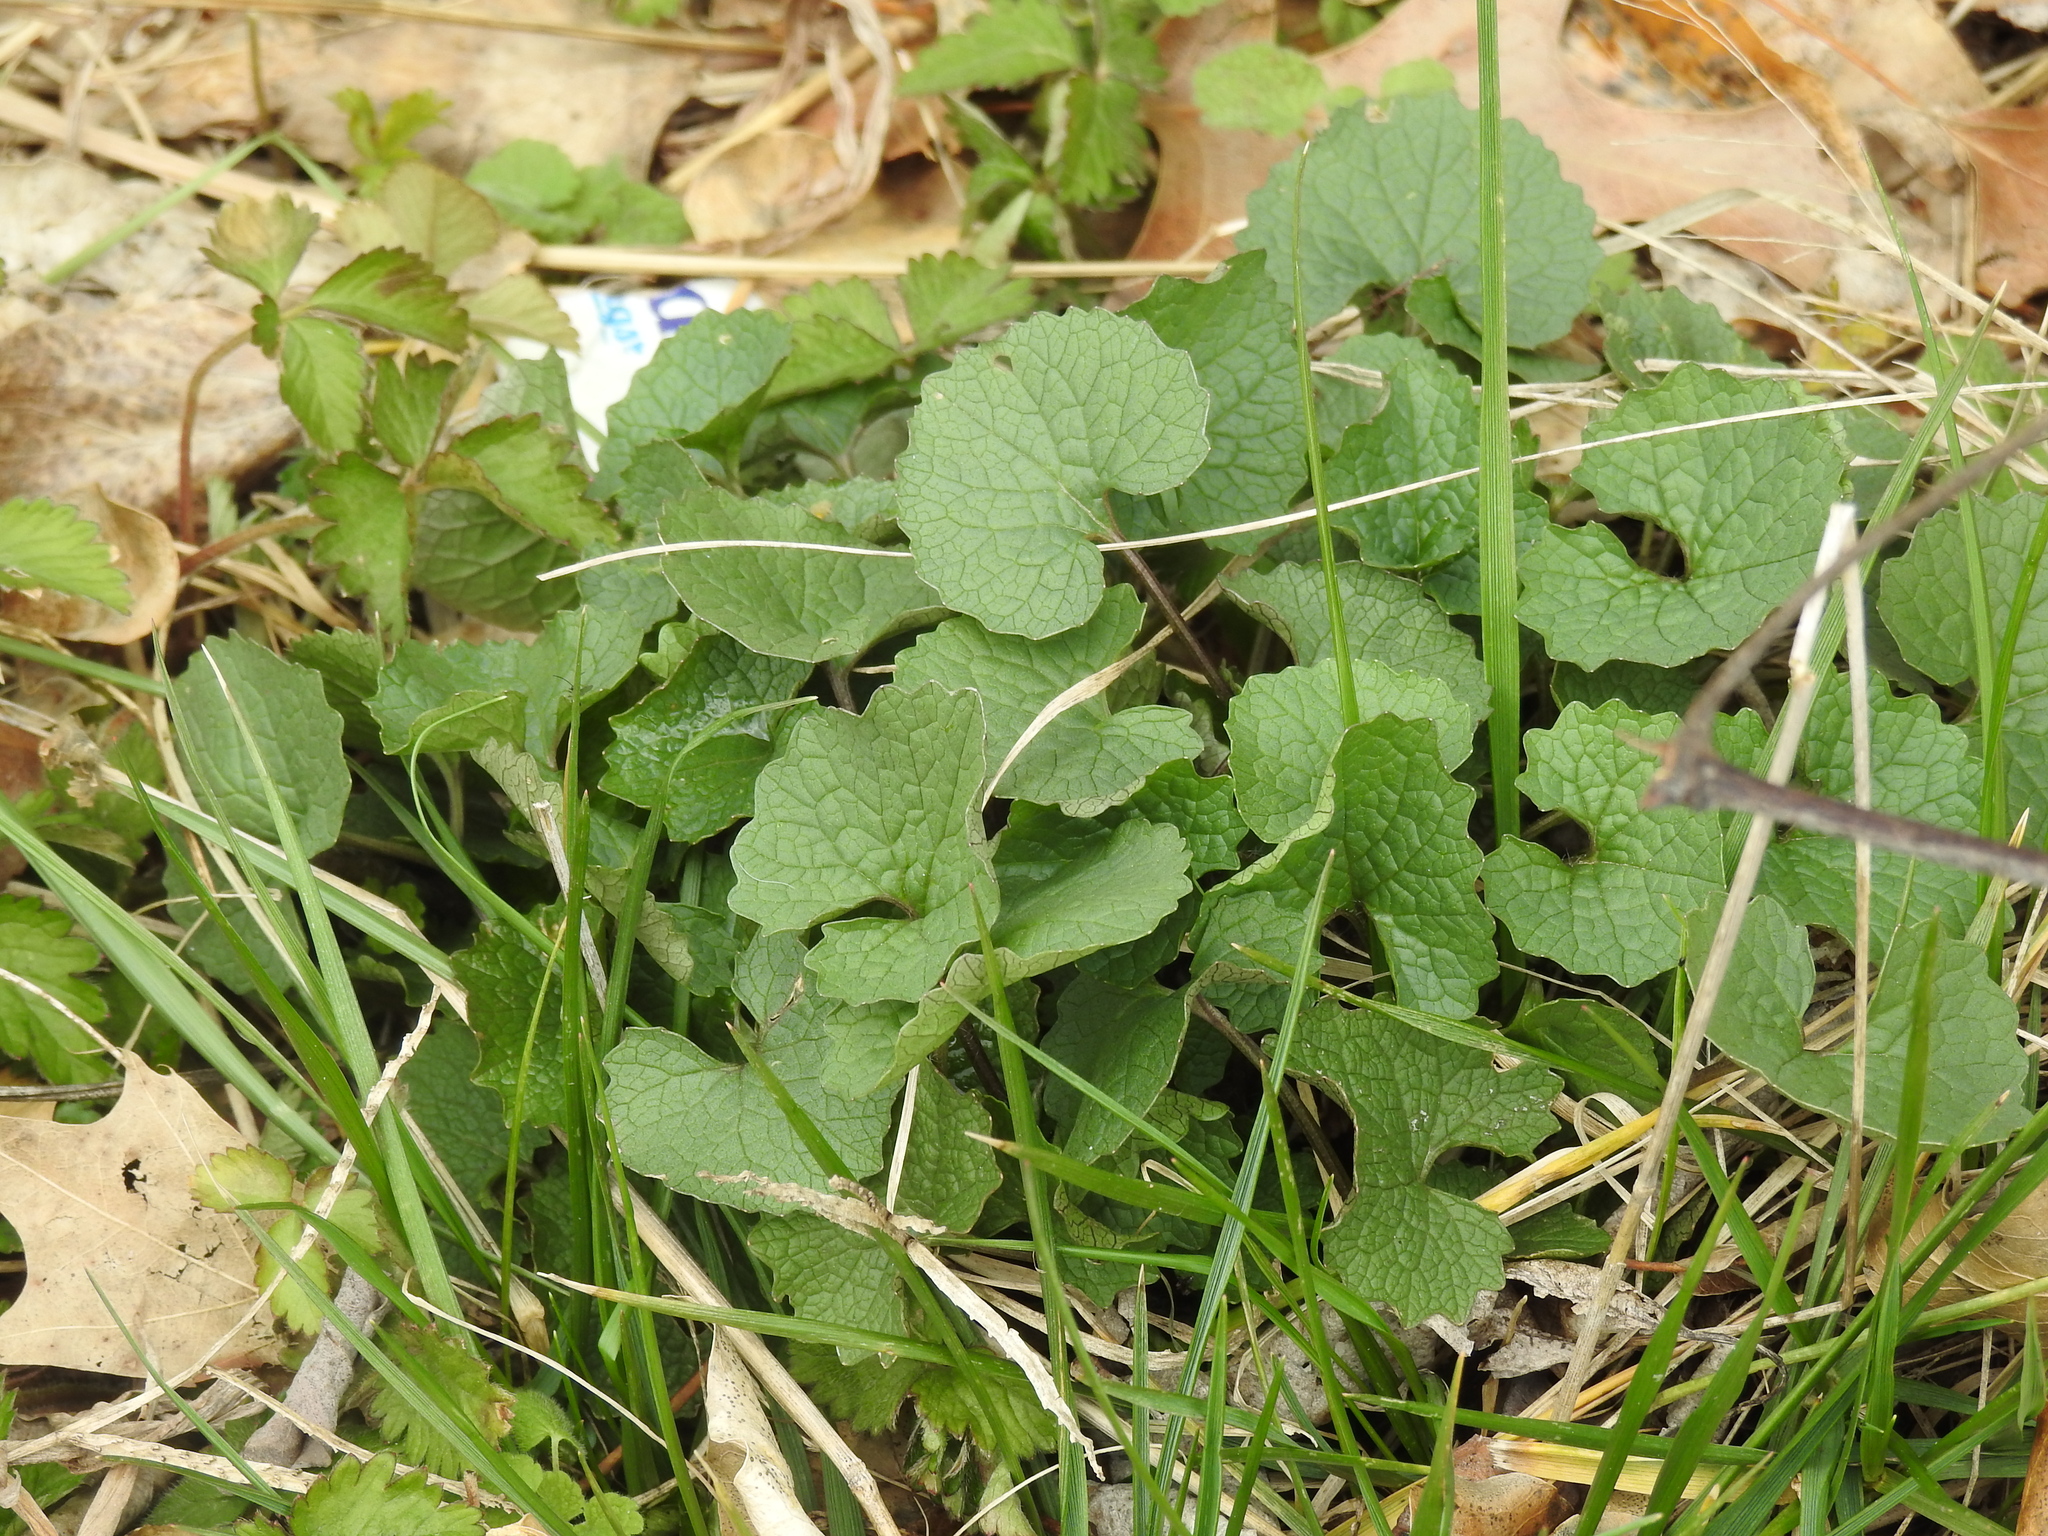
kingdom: Plantae
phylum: Tracheophyta
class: Magnoliopsida
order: Brassicales
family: Brassicaceae
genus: Alliaria
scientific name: Alliaria petiolata
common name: Garlic mustard
